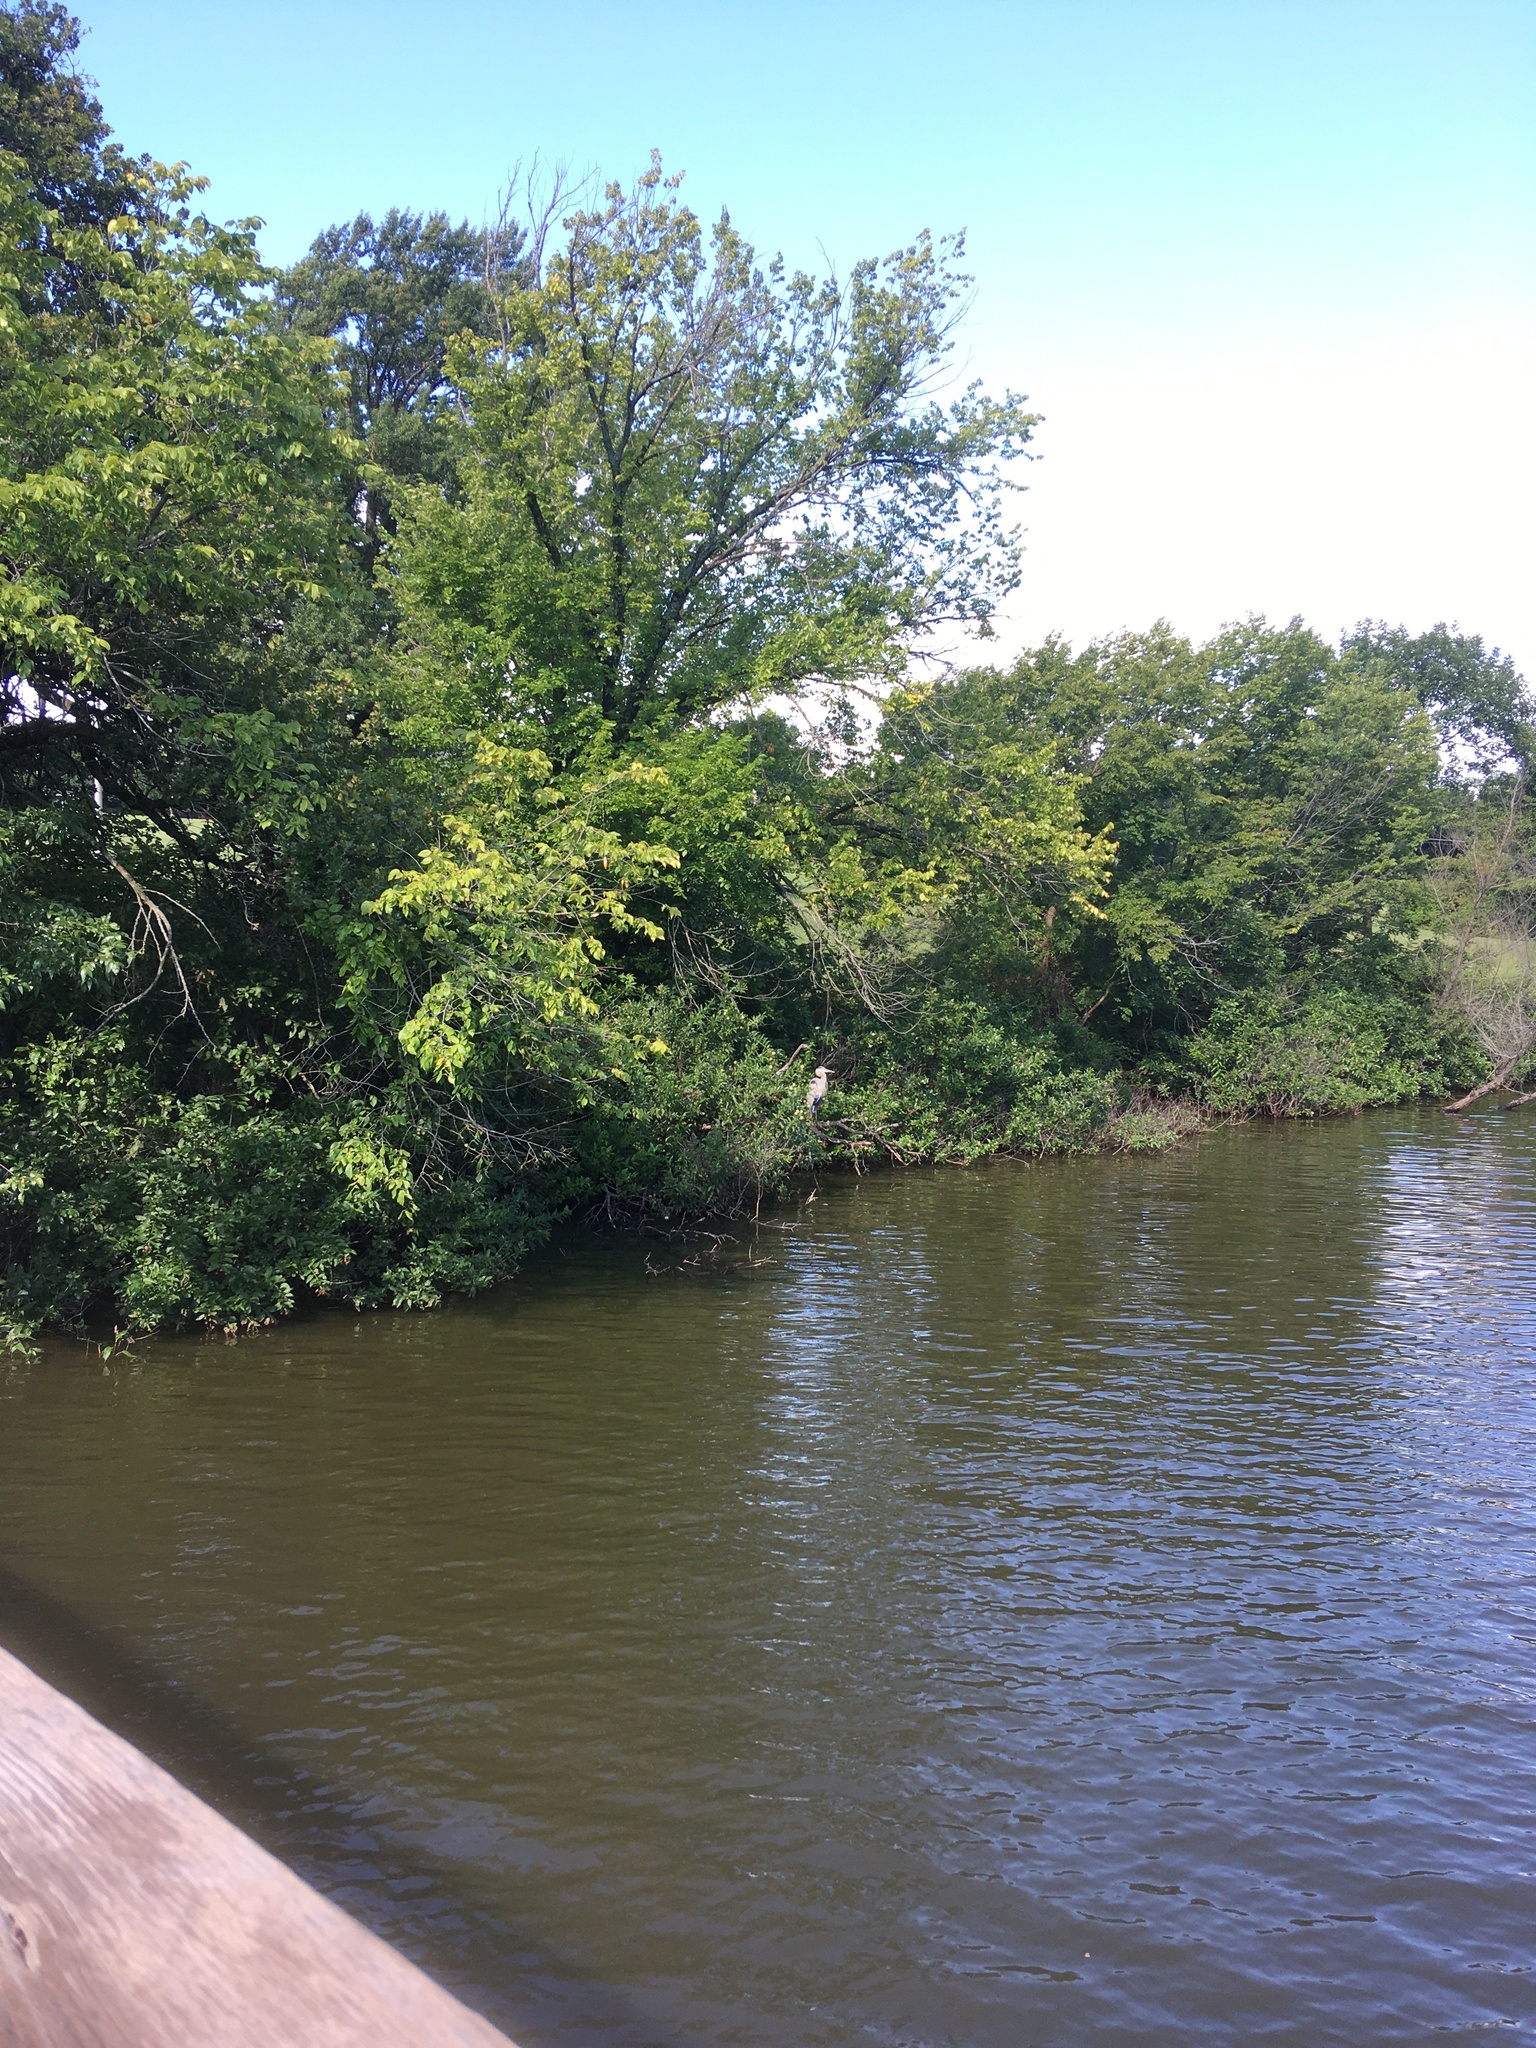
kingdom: Animalia
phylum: Chordata
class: Aves
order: Pelecaniformes
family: Ardeidae
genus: Ardea
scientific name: Ardea herodias
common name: Great blue heron
